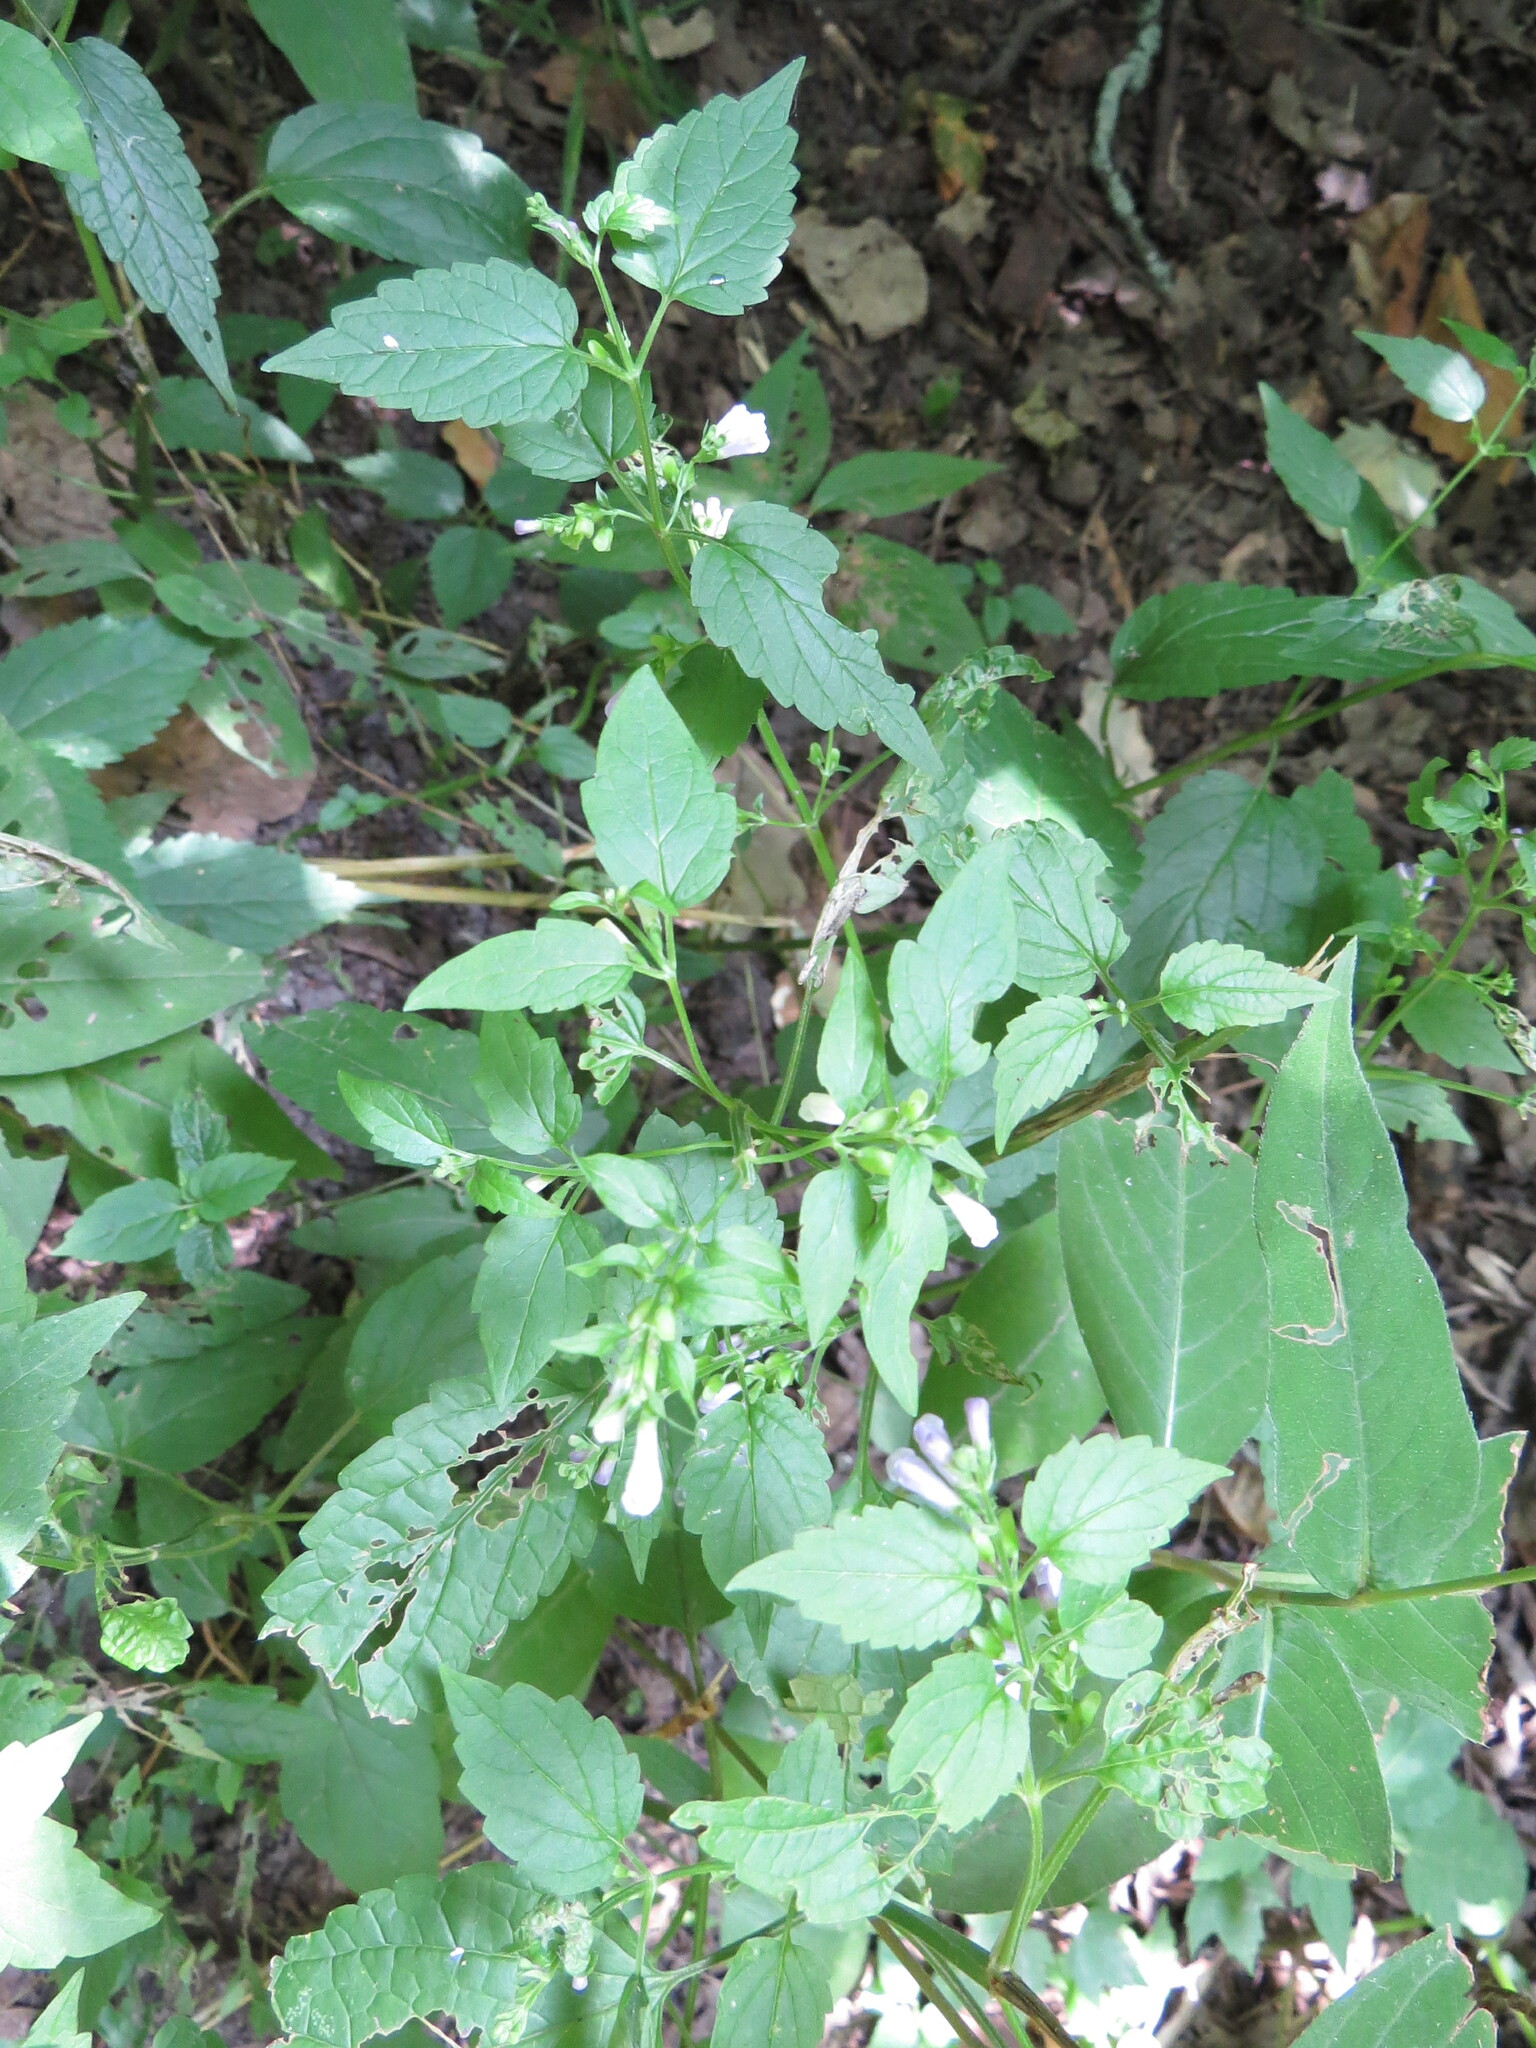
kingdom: Plantae
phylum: Tracheophyta
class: Magnoliopsida
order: Lamiales
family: Lamiaceae
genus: Scutellaria
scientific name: Scutellaria lateriflora
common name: Blue skullcap
